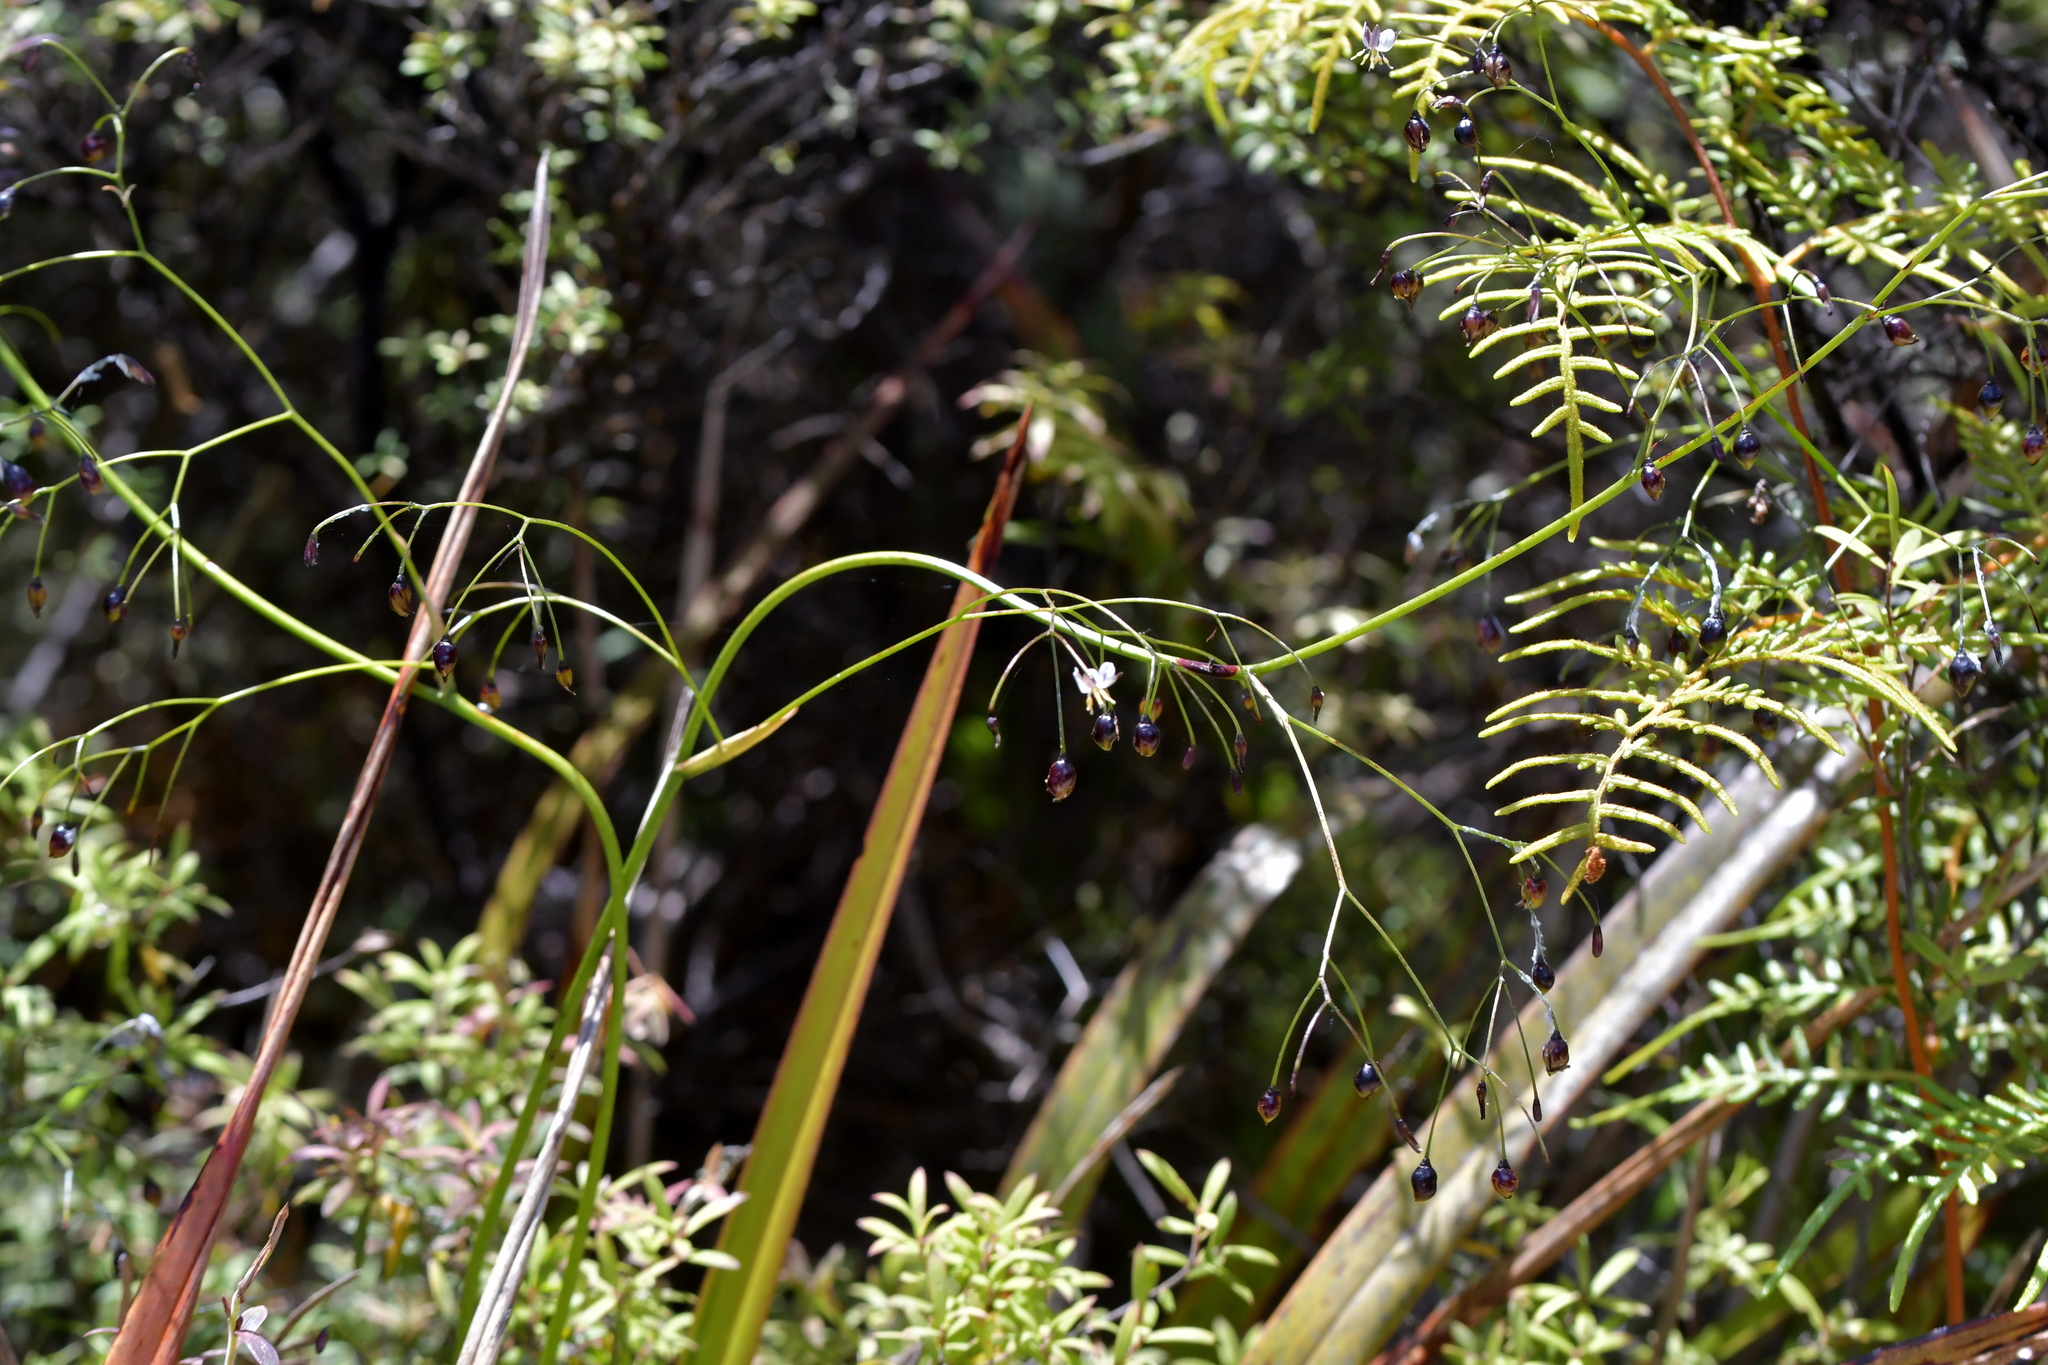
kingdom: Plantae
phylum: Tracheophyta
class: Liliopsida
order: Asparagales
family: Asphodelaceae
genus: Dianella
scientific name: Dianella nigra
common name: New zealand-blueberry
